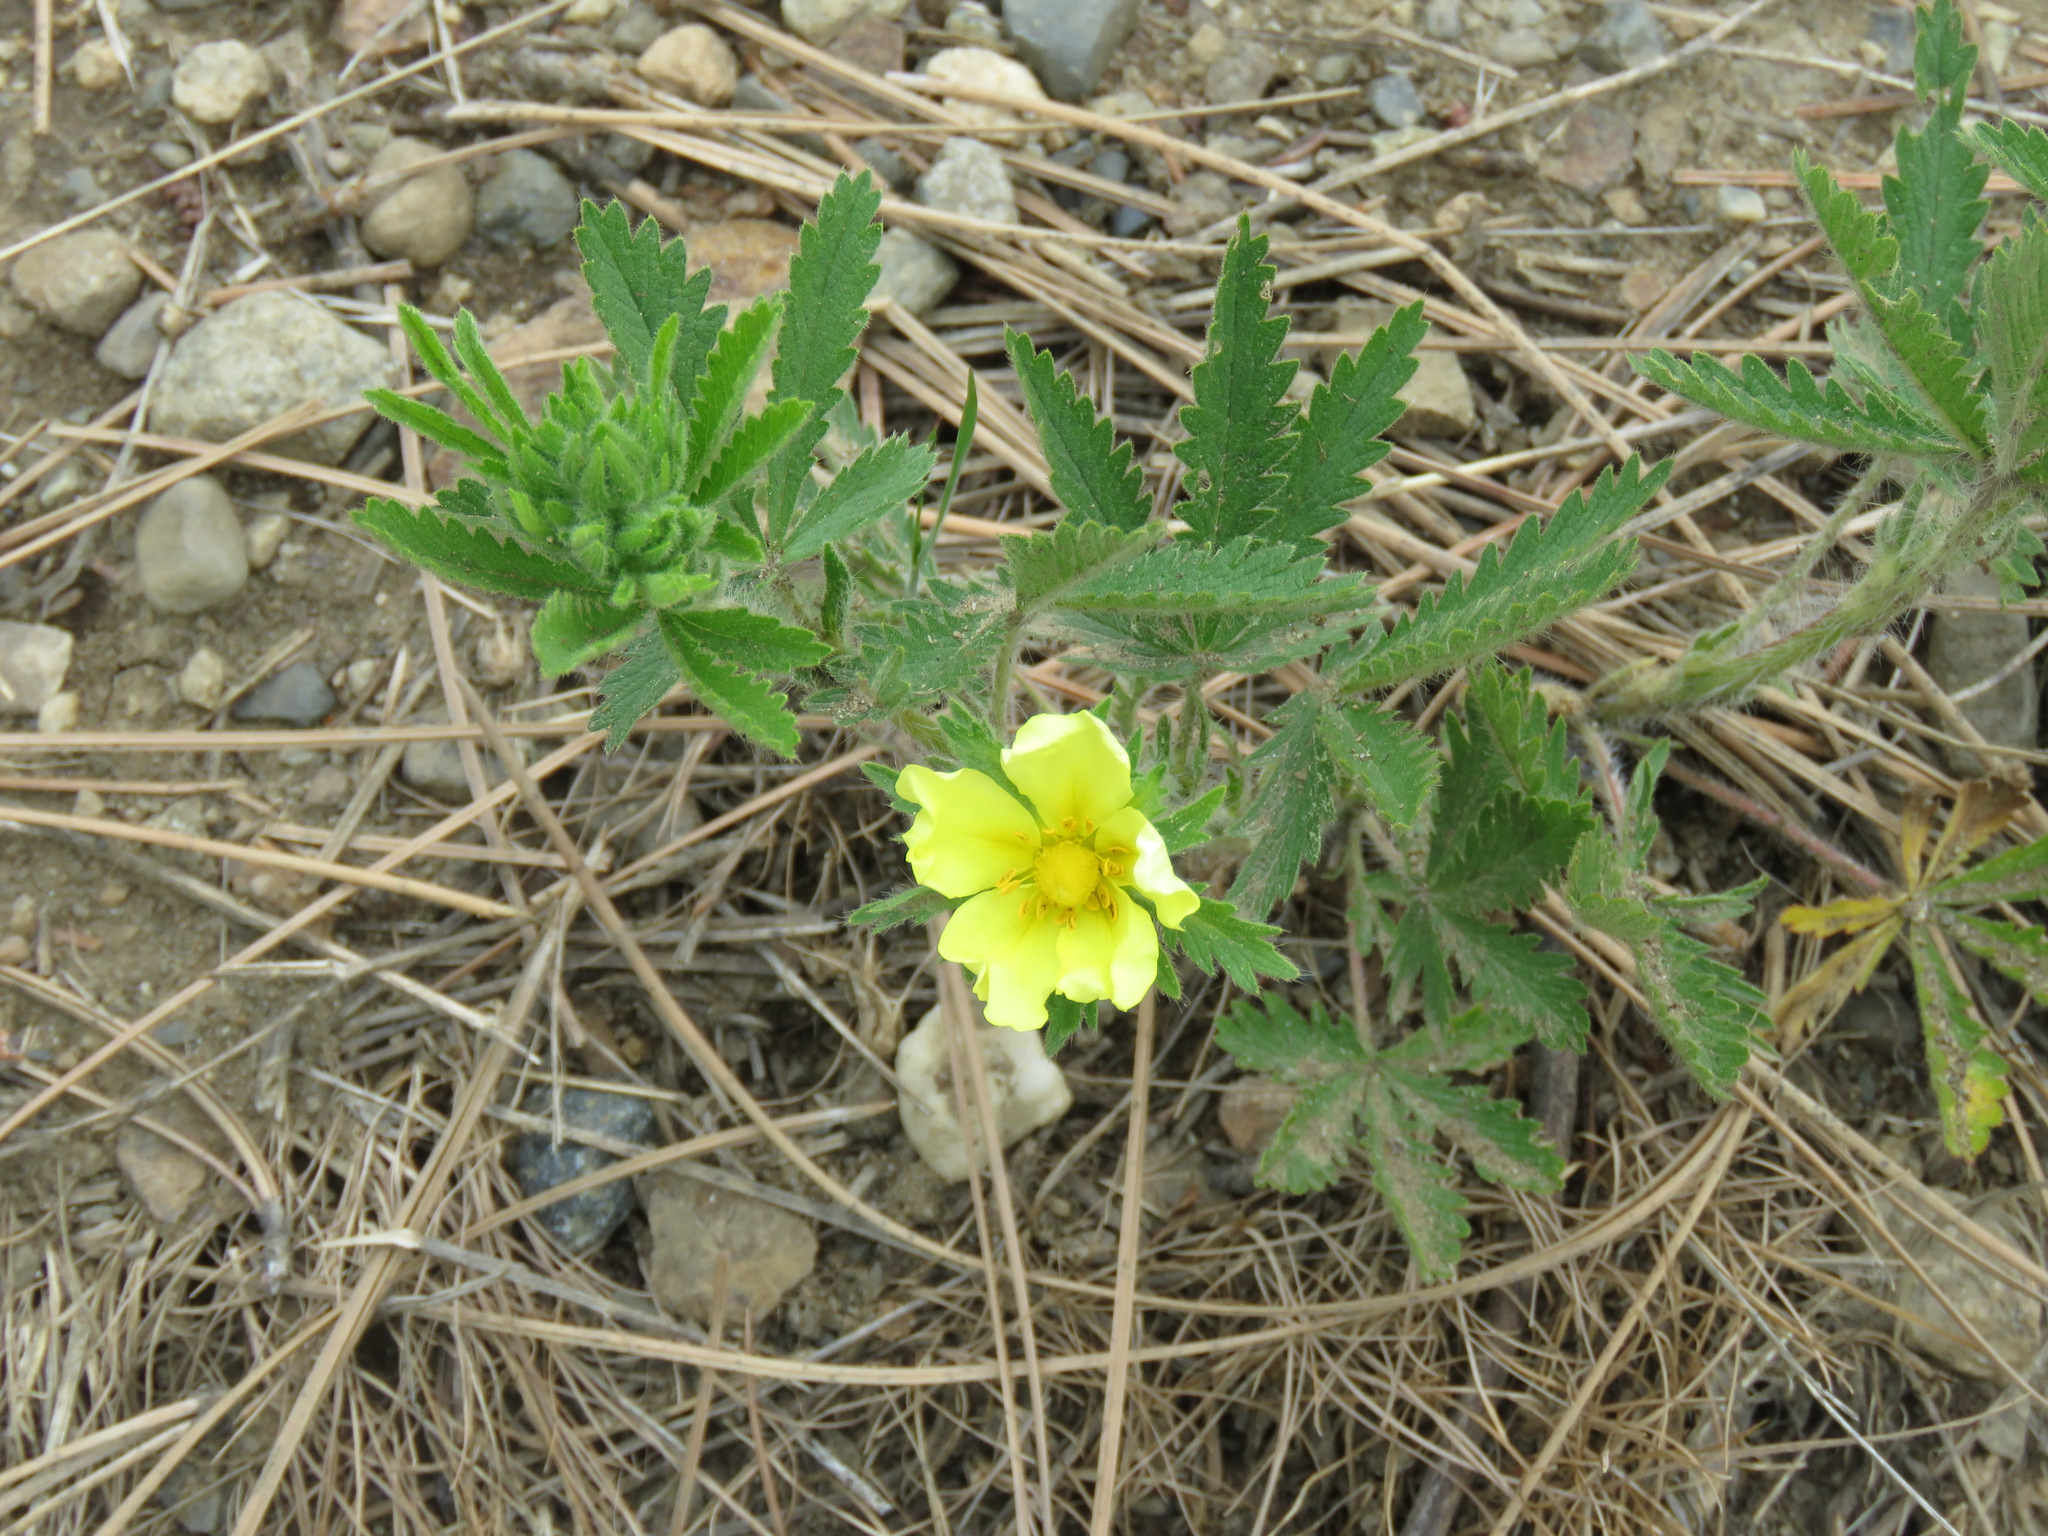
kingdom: Plantae
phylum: Tracheophyta
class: Magnoliopsida
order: Rosales
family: Rosaceae
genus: Potentilla
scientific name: Potentilla recta
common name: Sulphur cinquefoil
